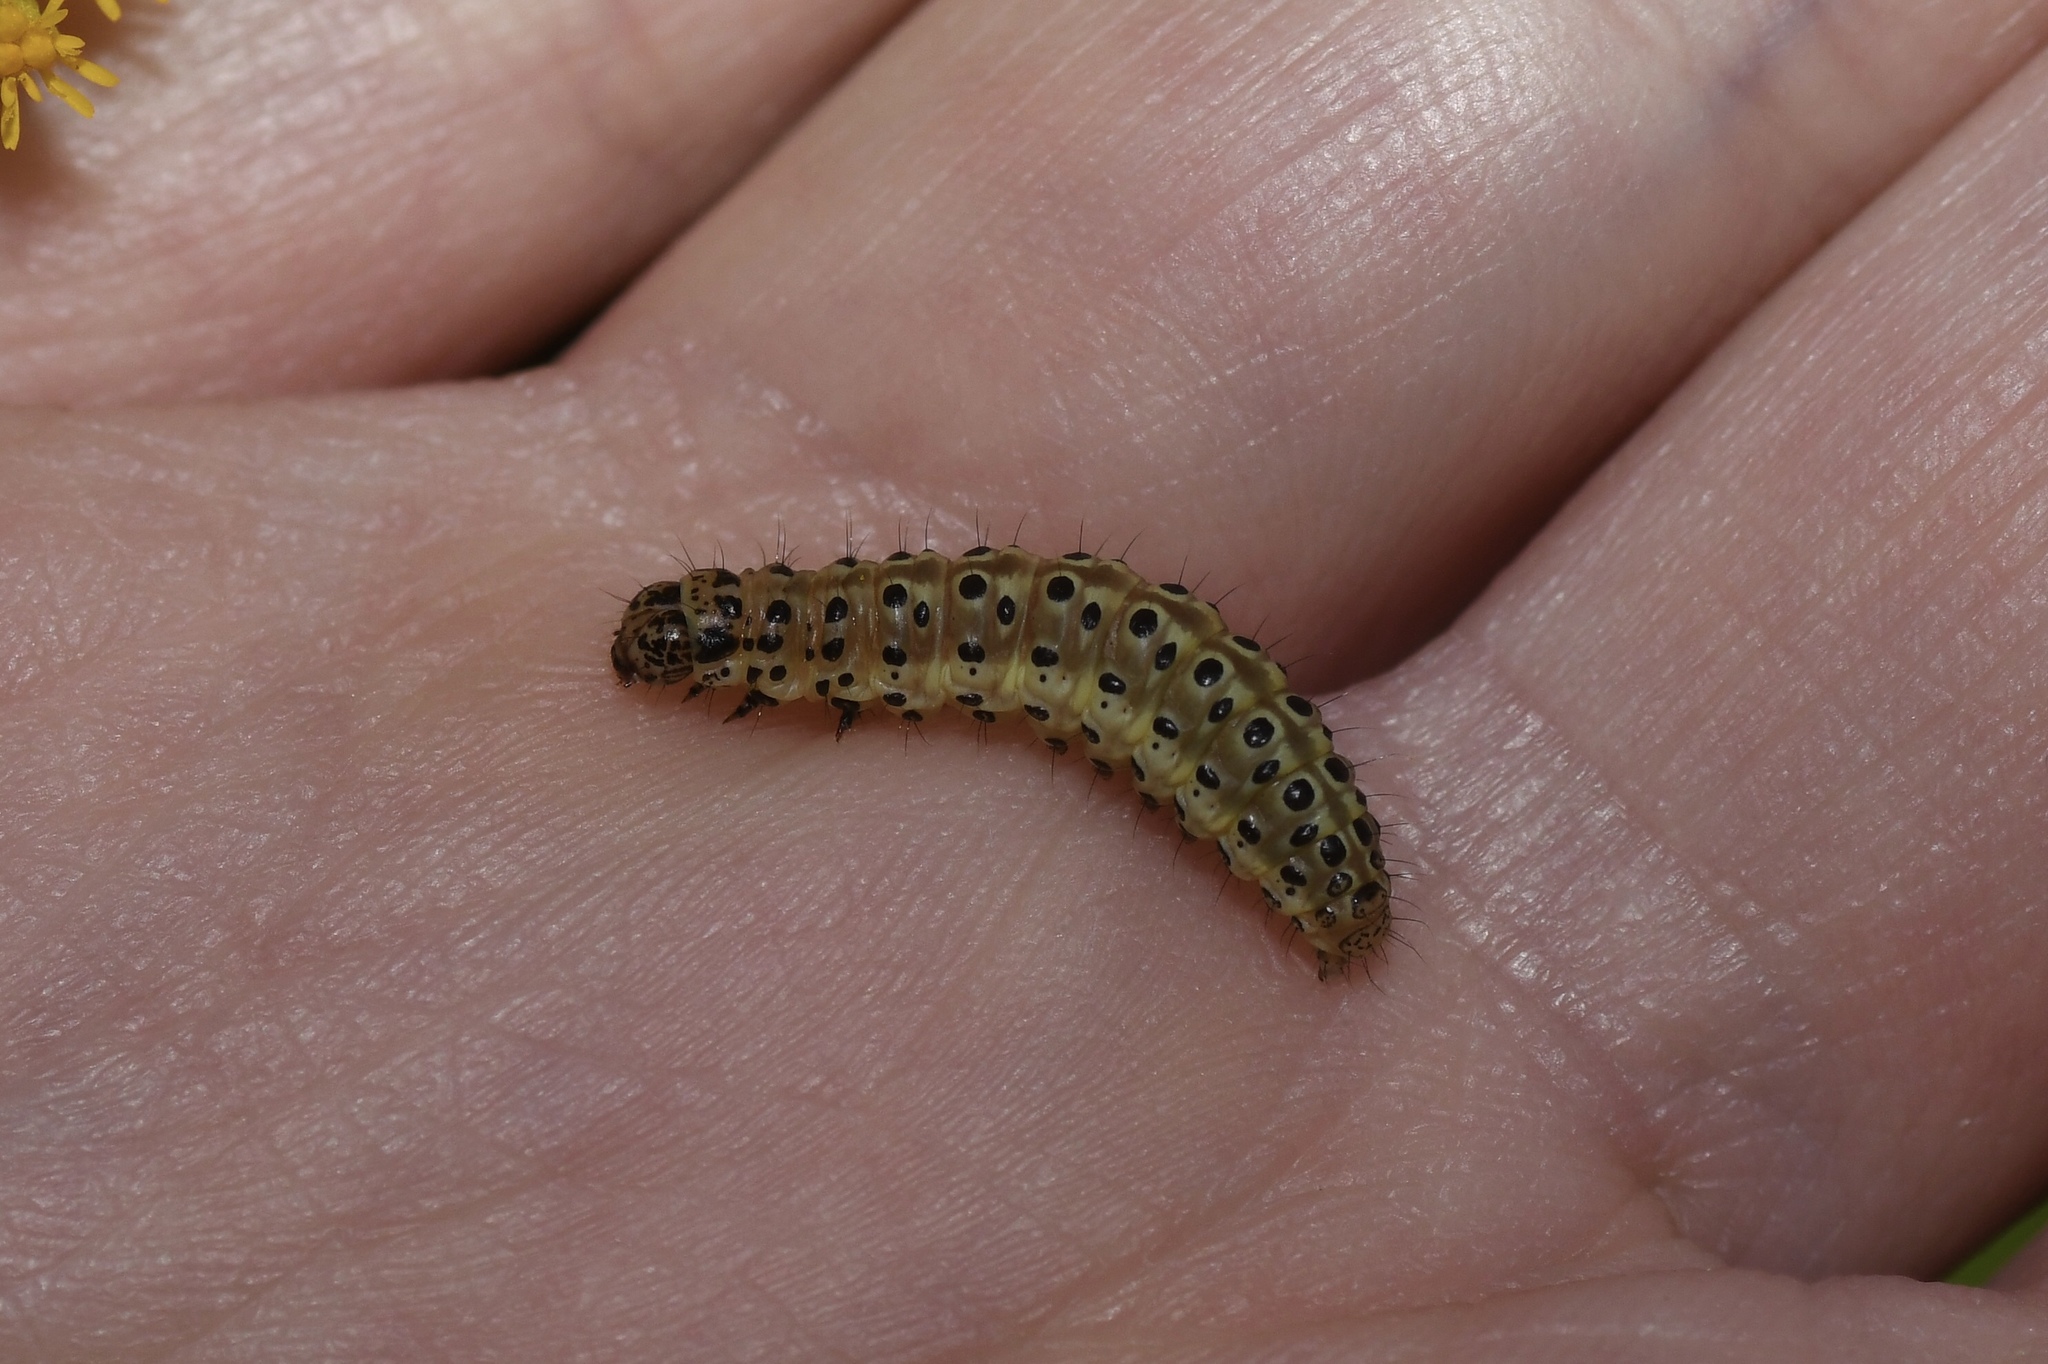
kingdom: Animalia
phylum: Arthropoda
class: Insecta
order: Lepidoptera
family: Crambidae
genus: Sitochroa
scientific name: Sitochroa palealis
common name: Greenish-yellow sitochroa moth
